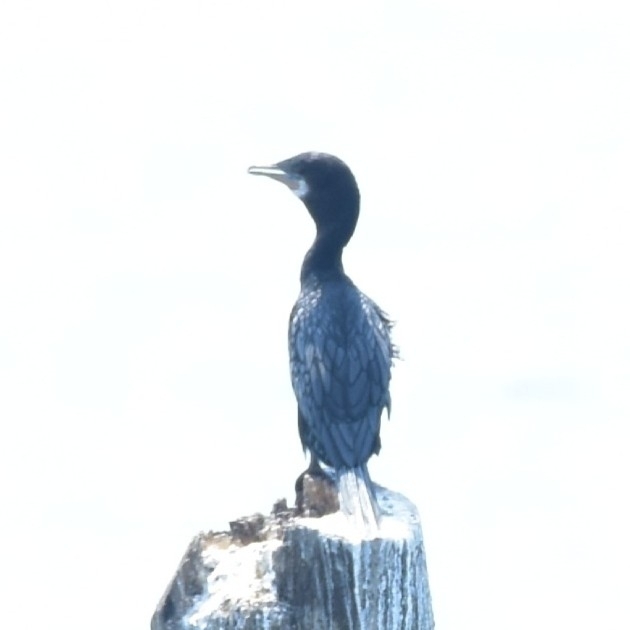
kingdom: Animalia
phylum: Chordata
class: Aves
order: Suliformes
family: Phalacrocoracidae
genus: Microcarbo
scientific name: Microcarbo niger
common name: Little cormorant
